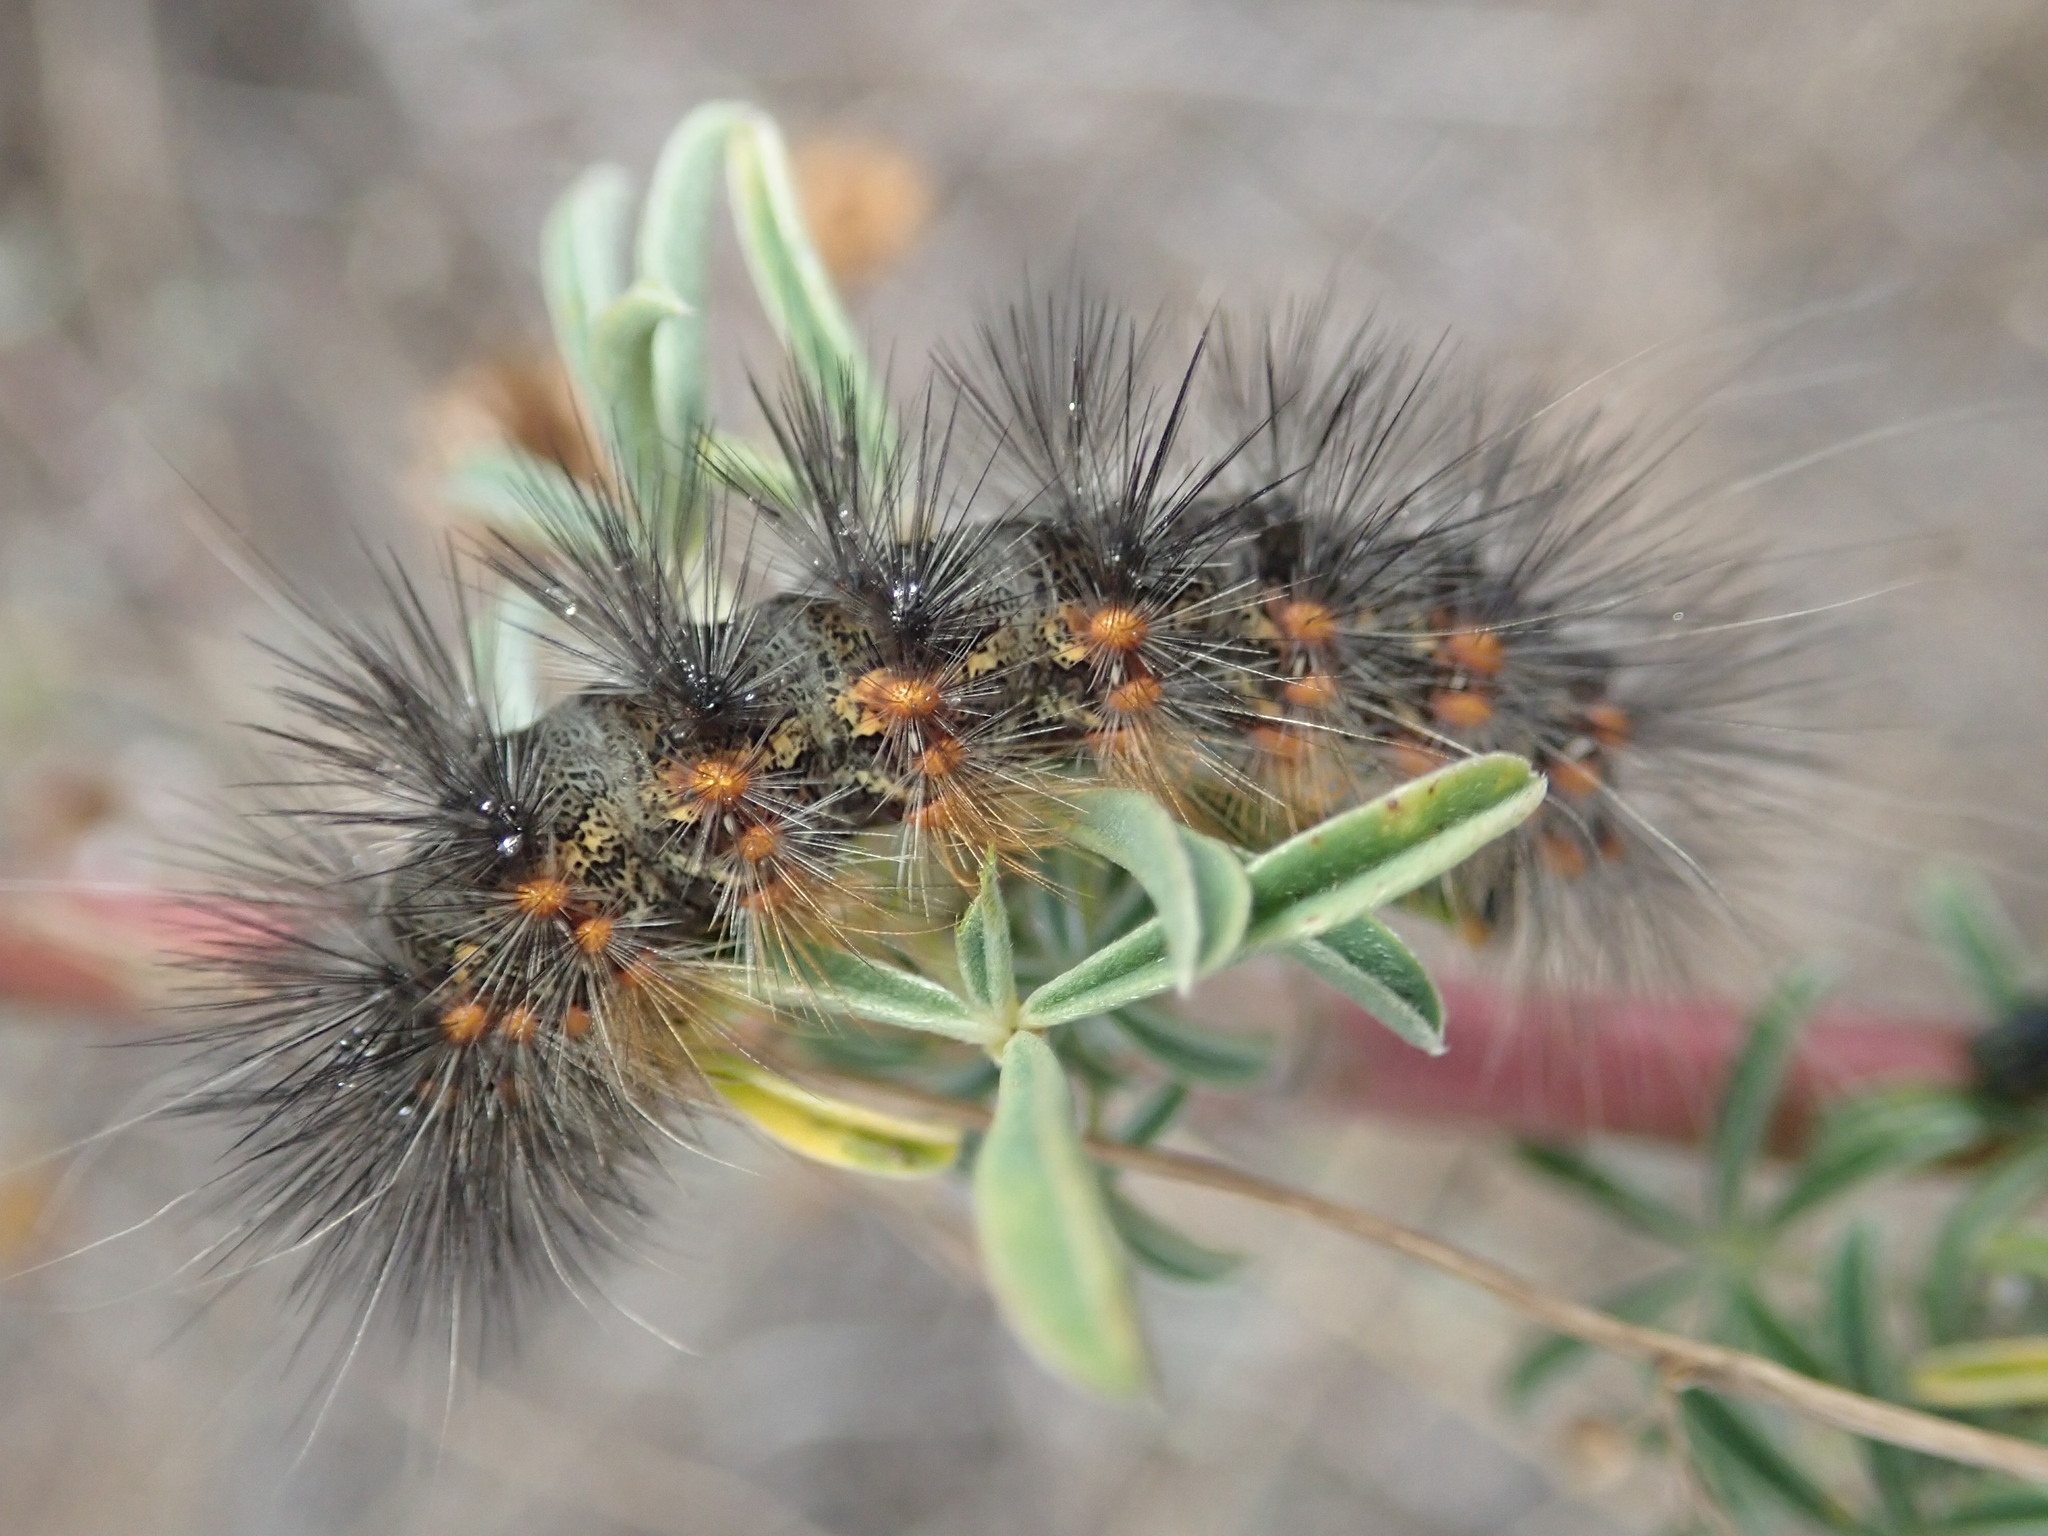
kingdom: Animalia
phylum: Arthropoda
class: Insecta
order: Lepidoptera
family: Erebidae
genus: Estigmene
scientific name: Estigmene acrea
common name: Salt marsh moth
